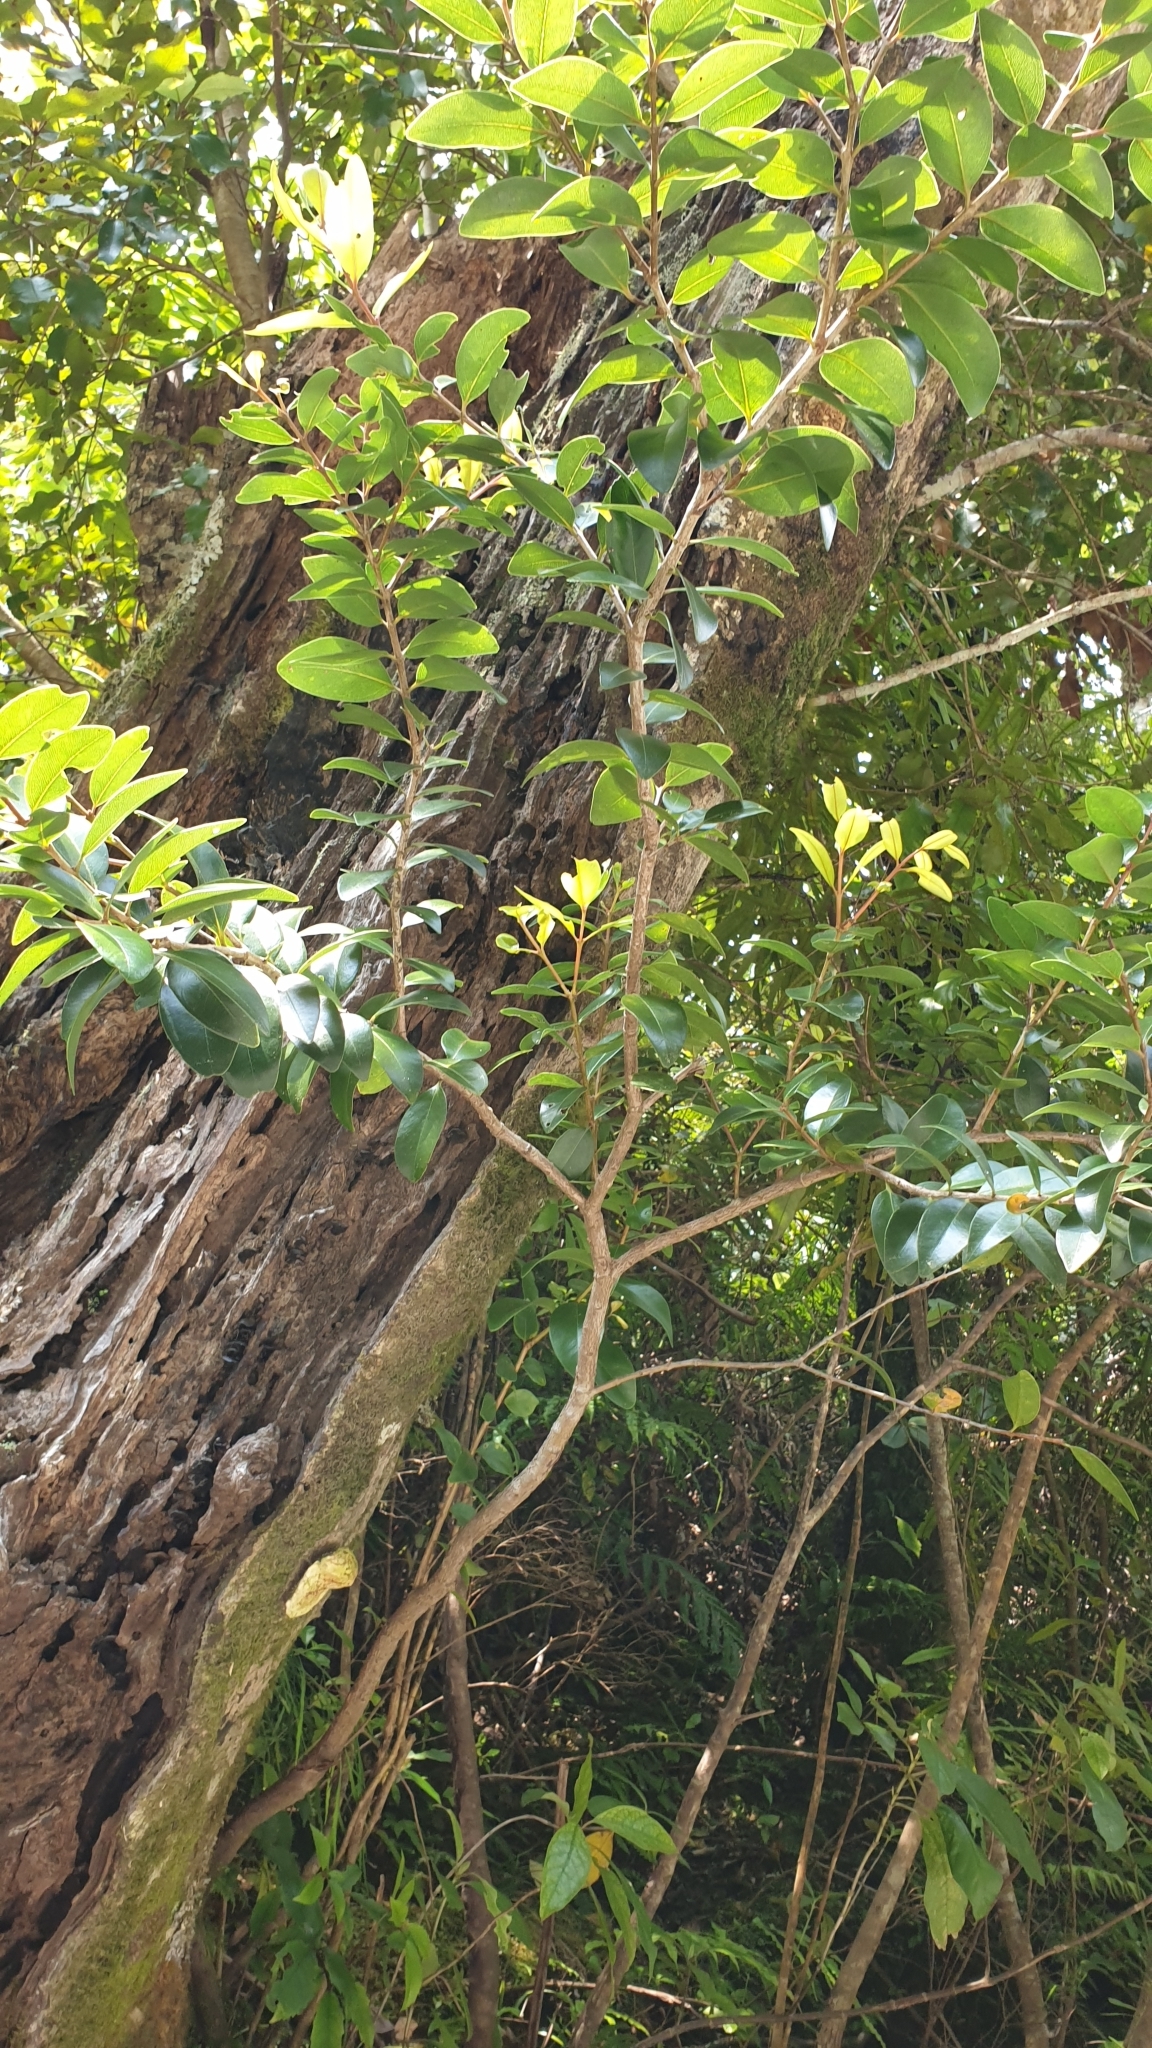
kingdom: Plantae
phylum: Tracheophyta
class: Magnoliopsida
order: Myrtales
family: Myrtaceae
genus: Metrosideros
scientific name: Metrosideros robusta
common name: Northern rata
